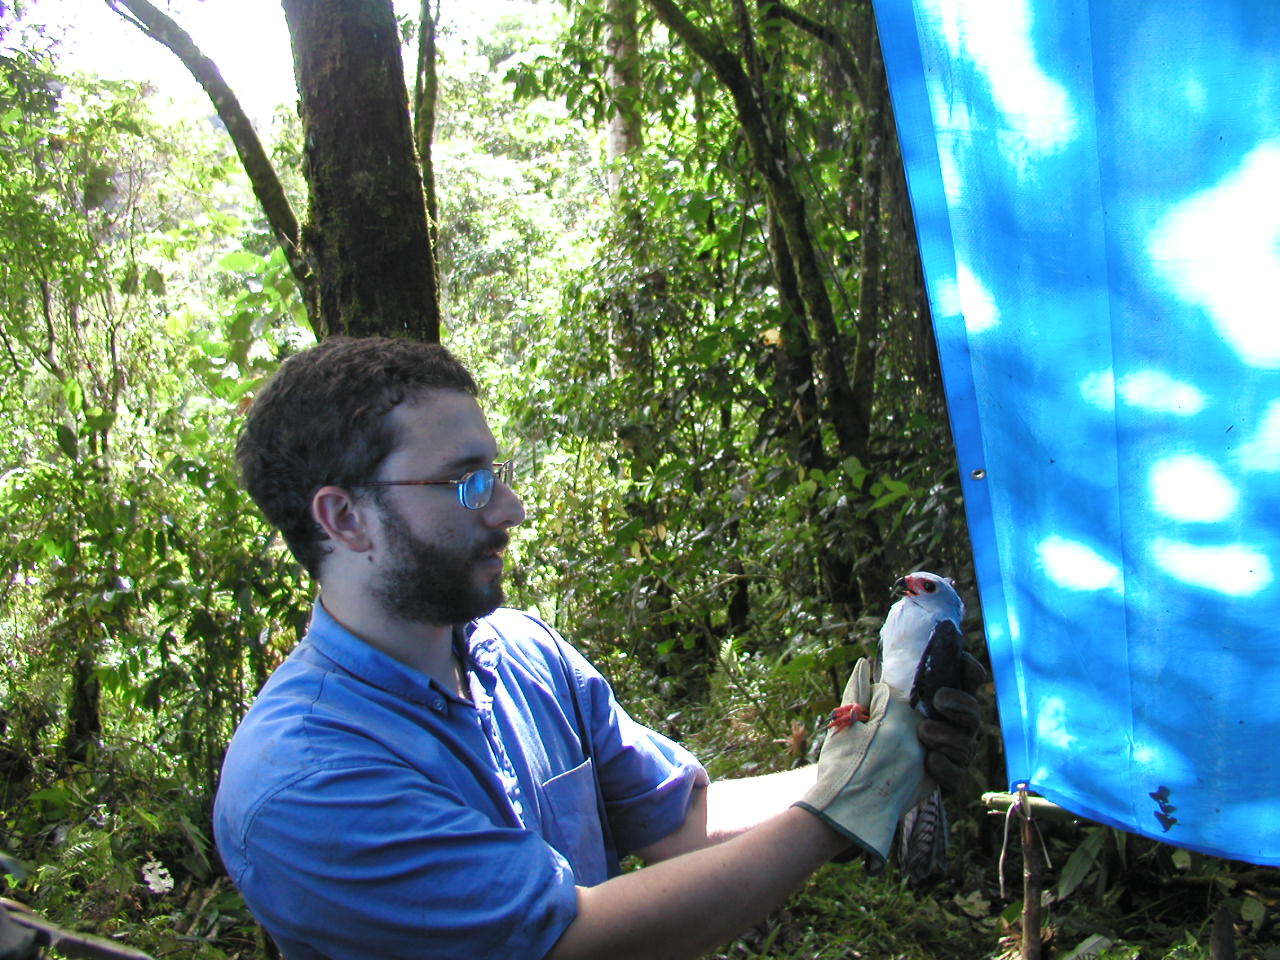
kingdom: Animalia
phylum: Chordata
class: Aves
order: Accipitriformes
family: Accipitridae
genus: Accipiter
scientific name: Accipiter poliocephalus
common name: Grey-headed goshawk
